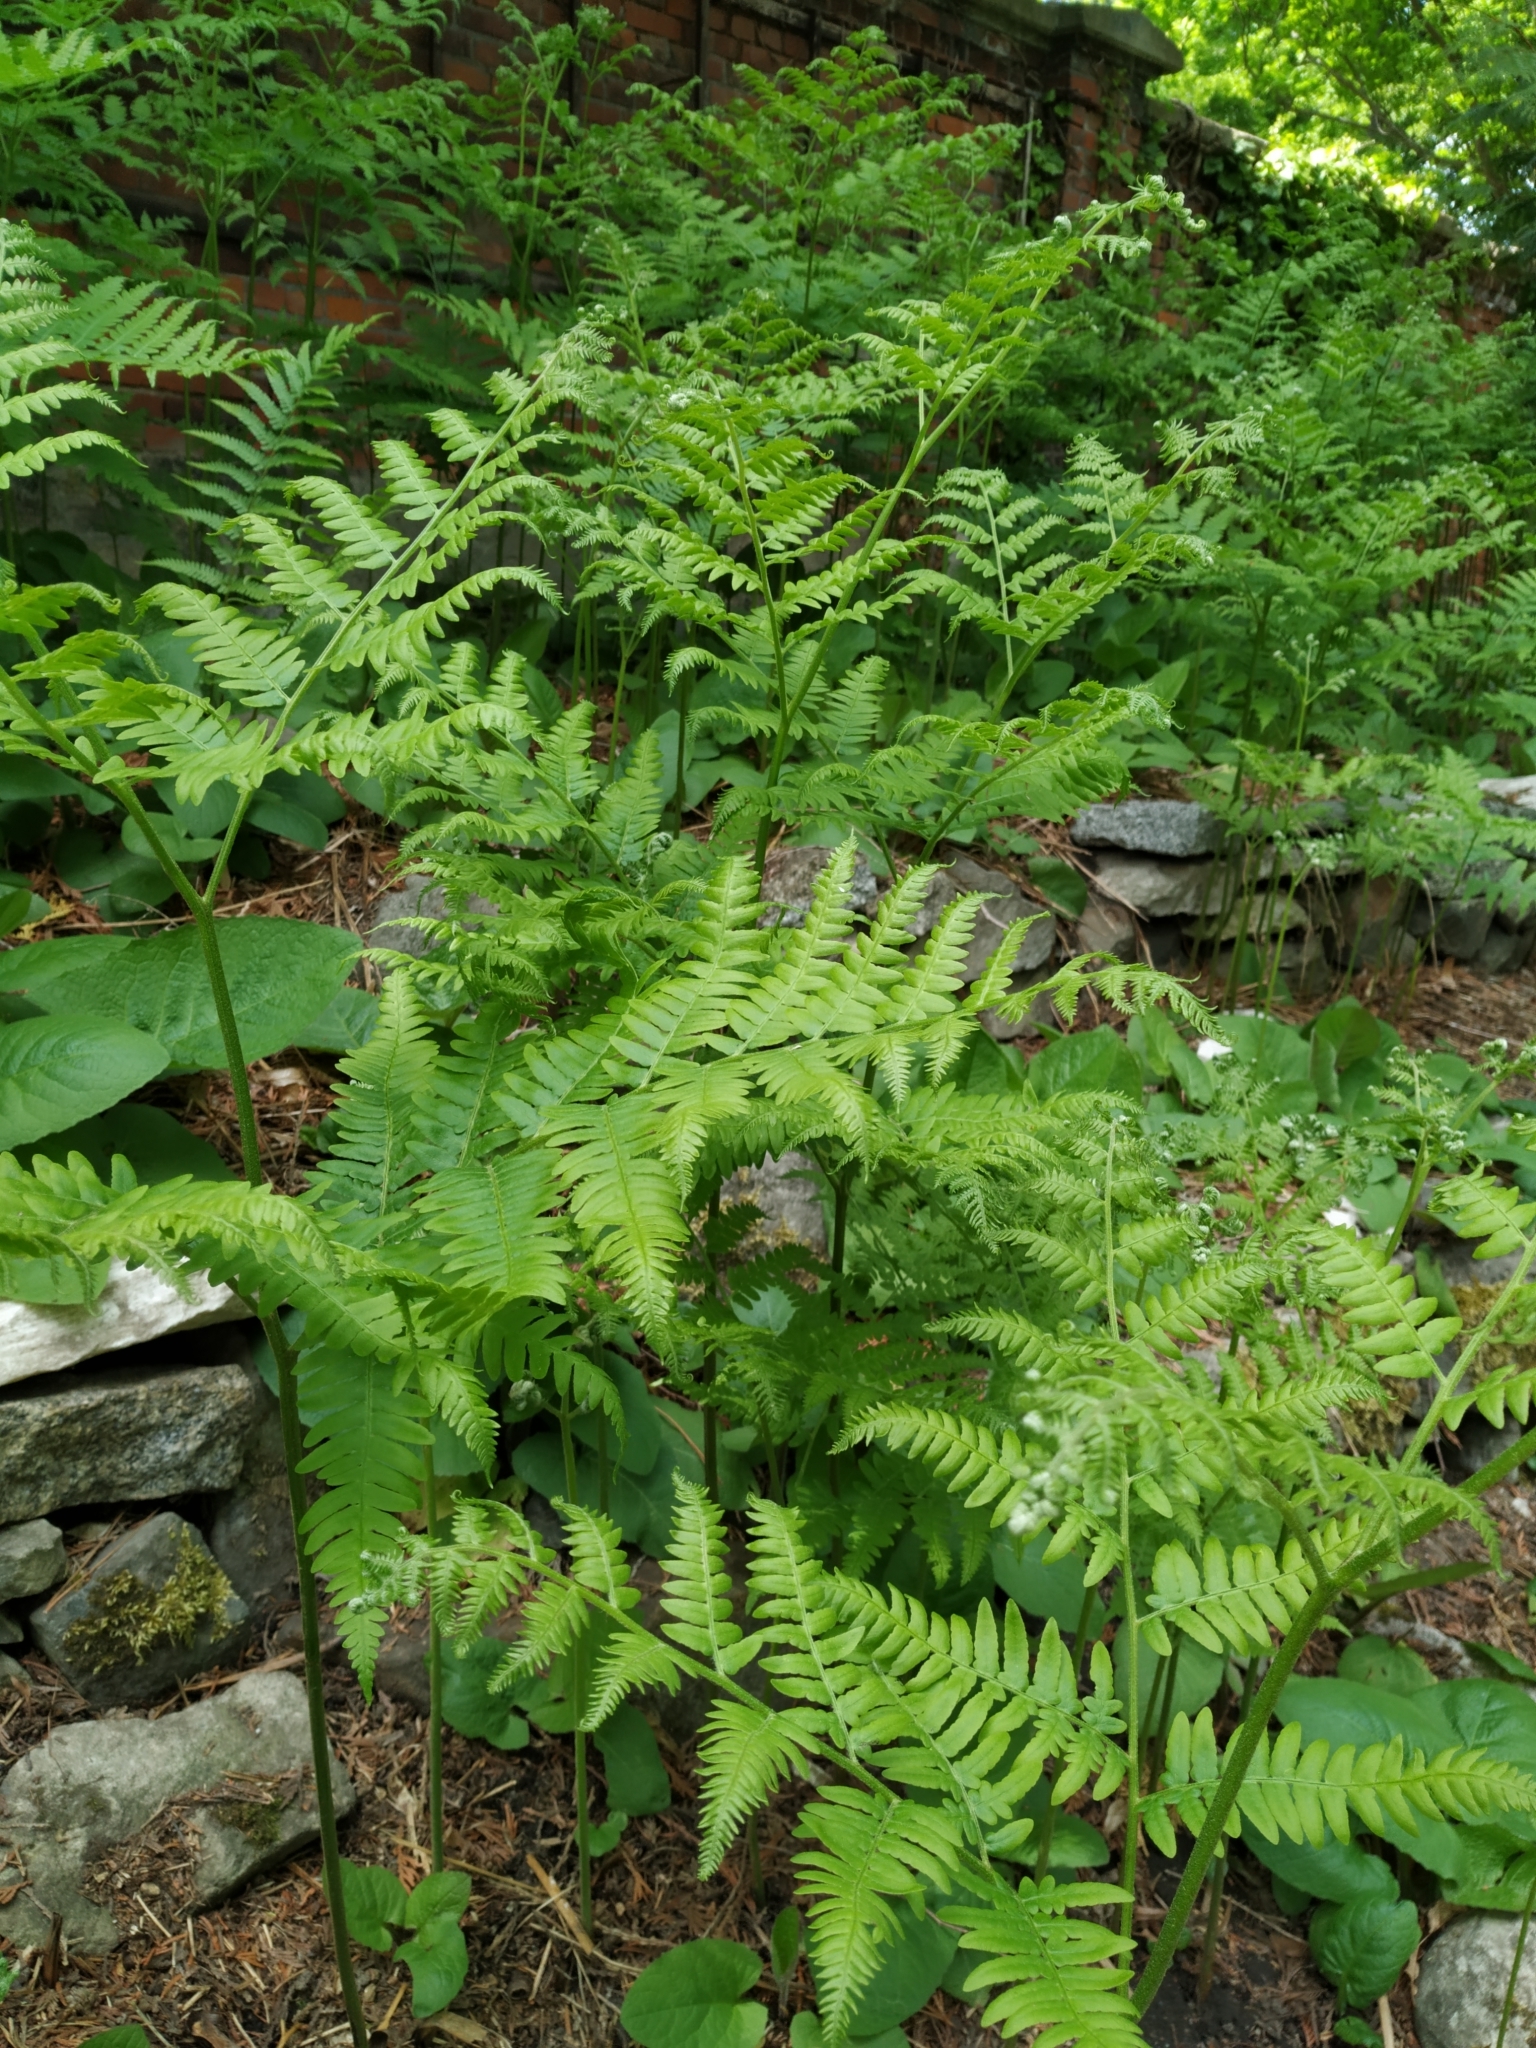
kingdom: Plantae
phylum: Tracheophyta
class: Polypodiopsida
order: Polypodiales
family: Dennstaedtiaceae
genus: Pteridium
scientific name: Pteridium aquilinum
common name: Bracken
